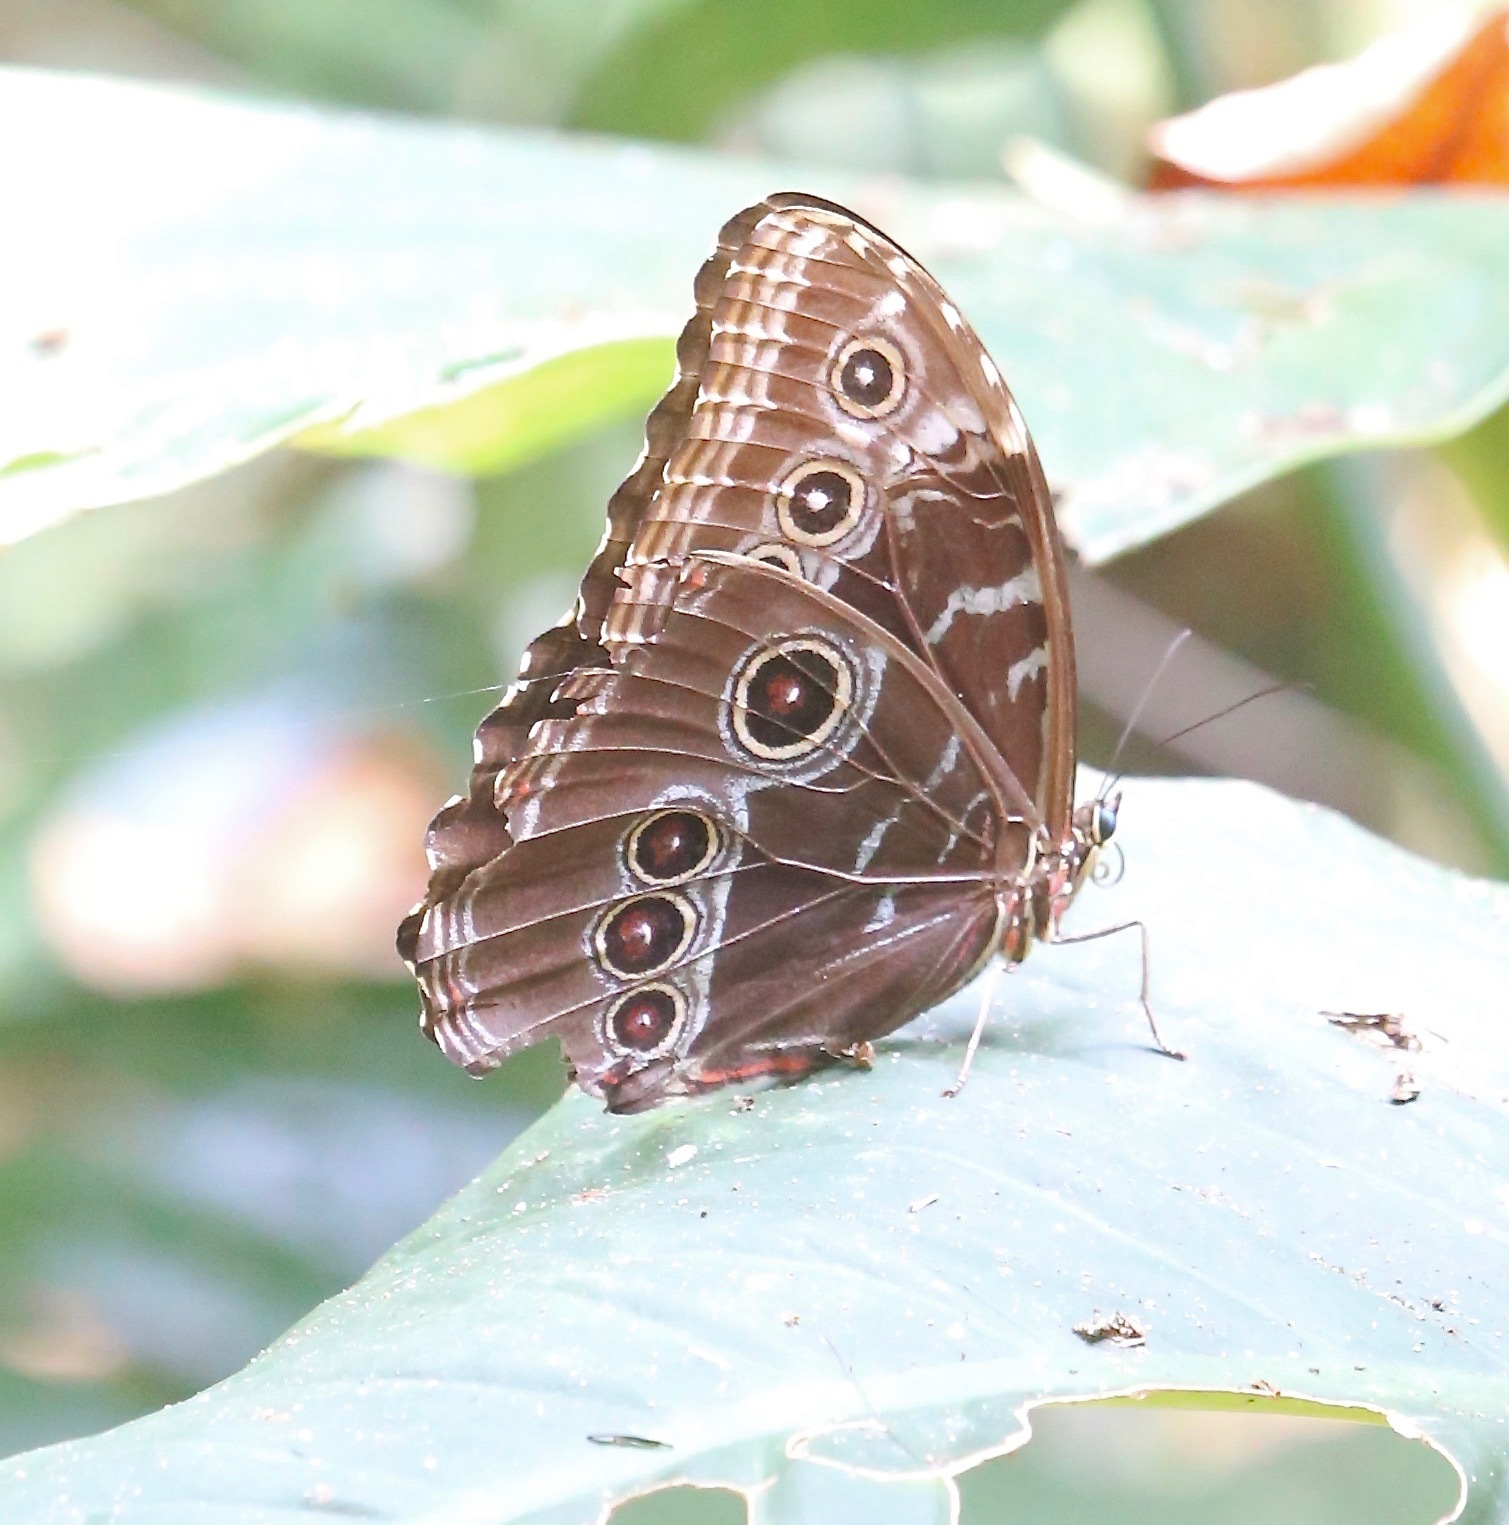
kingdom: Animalia
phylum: Arthropoda
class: Insecta
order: Lepidoptera
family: Nymphalidae
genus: Morpho
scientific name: Morpho helenor
